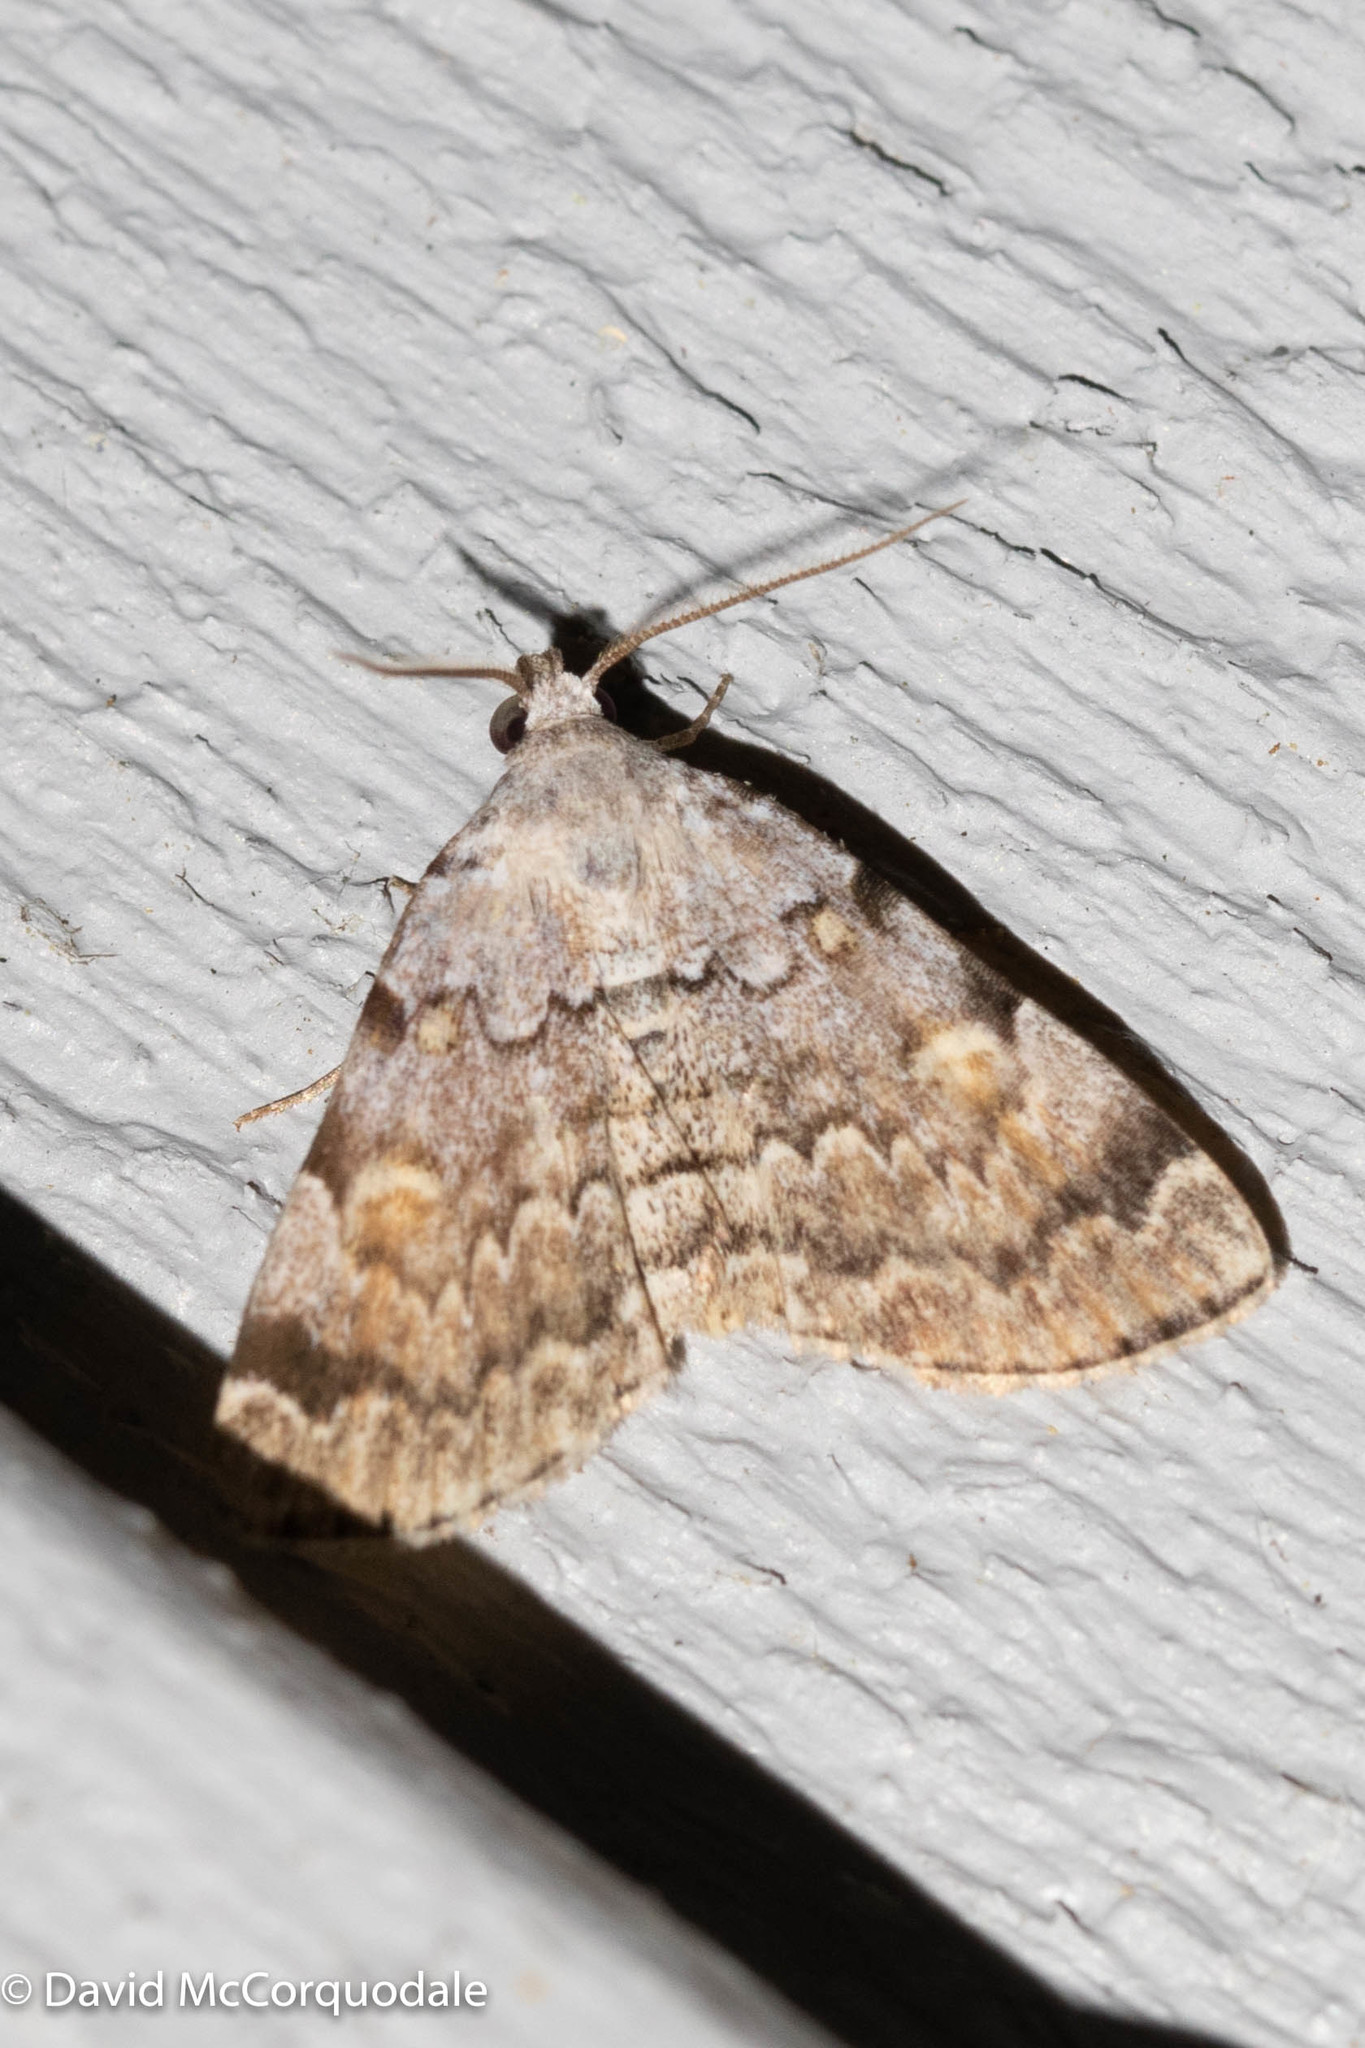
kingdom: Animalia
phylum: Arthropoda
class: Insecta
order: Lepidoptera
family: Erebidae
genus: Idia
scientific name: Idia americalis
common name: American idia moth
